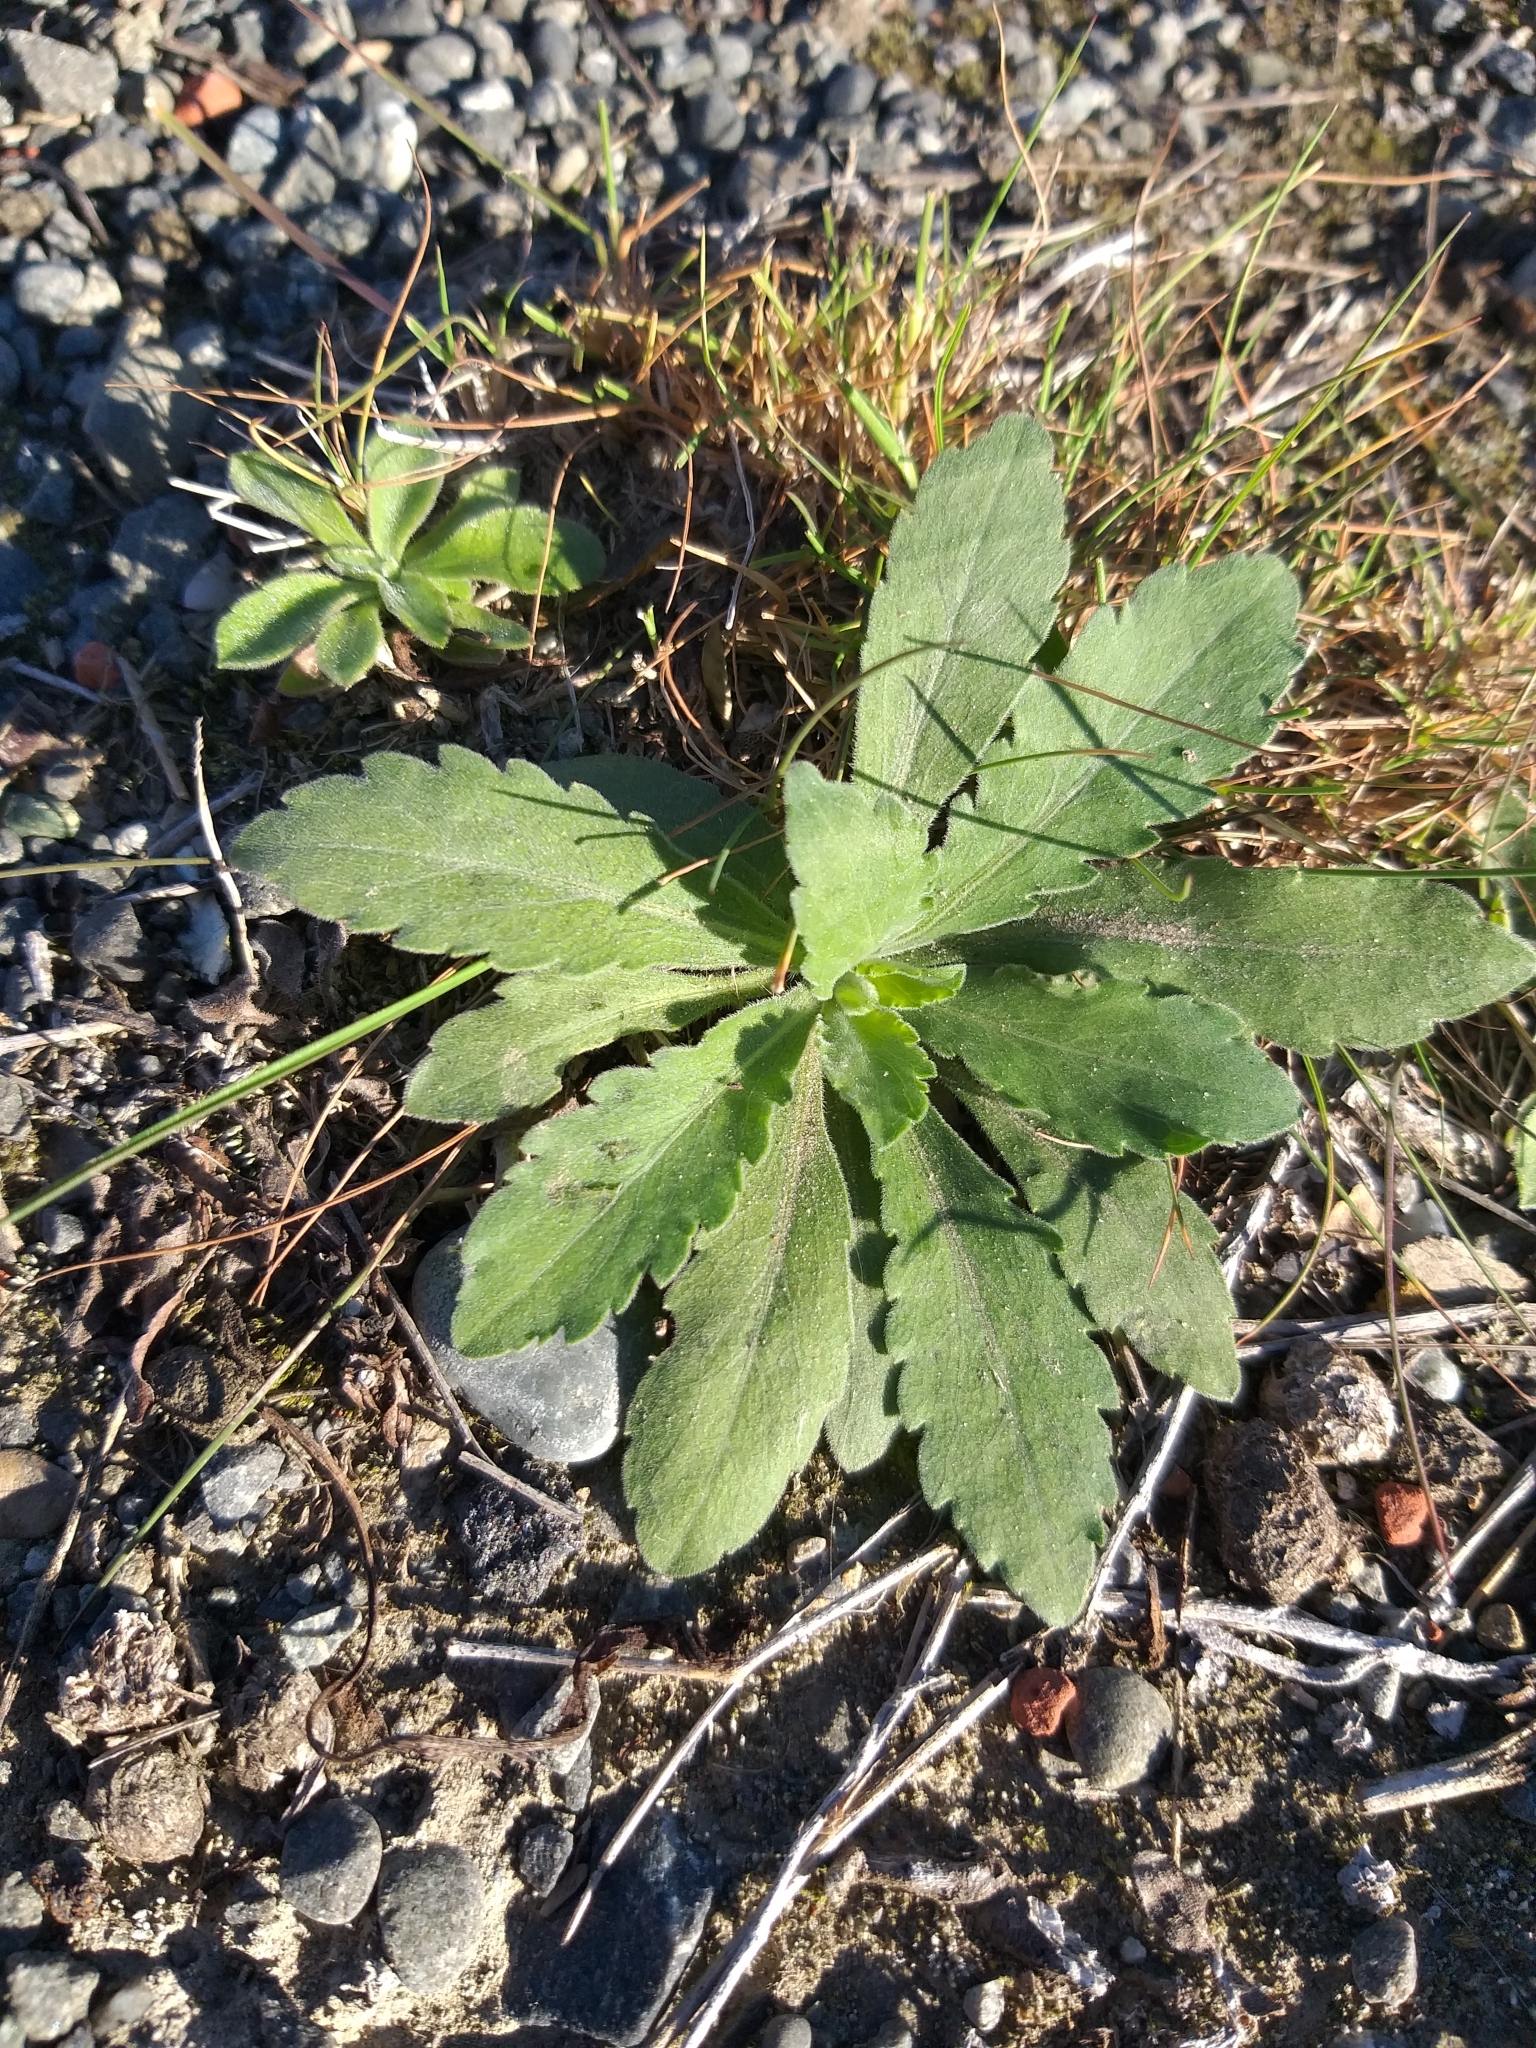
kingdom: Plantae
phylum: Tracheophyta
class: Magnoliopsida
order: Asterales
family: Asteraceae
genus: Erigeron
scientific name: Erigeron sumatrensis
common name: Daisy
